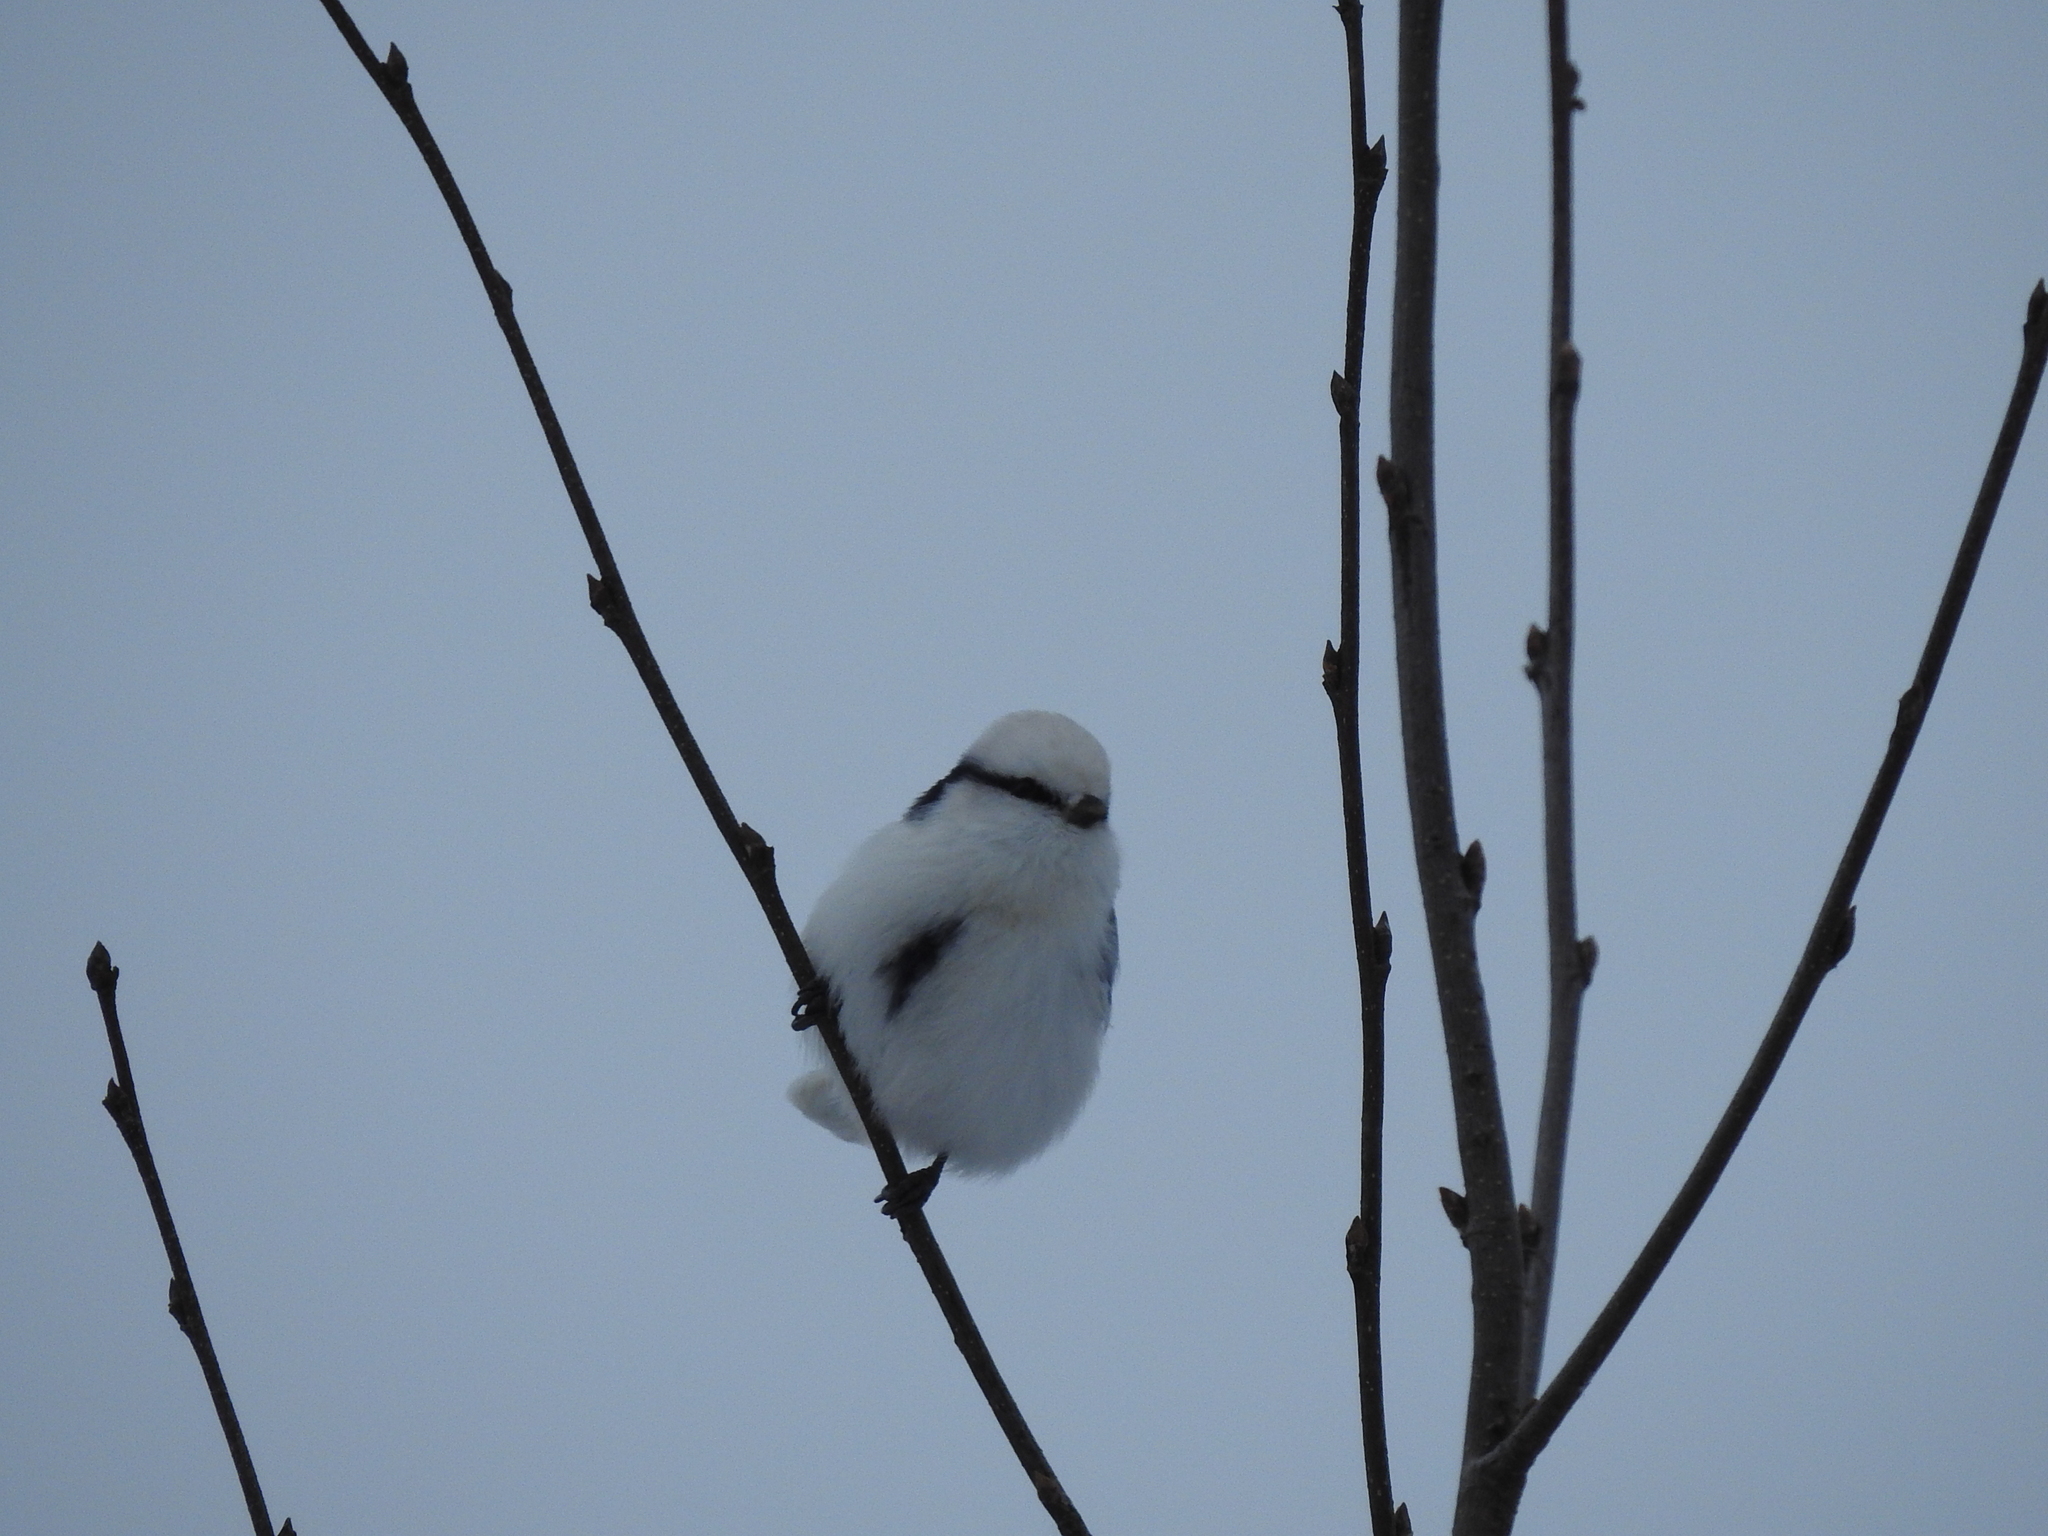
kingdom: Animalia
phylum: Chordata
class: Aves
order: Passeriformes
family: Paridae
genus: Cyanistes
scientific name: Cyanistes cyanus
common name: Azure tit
